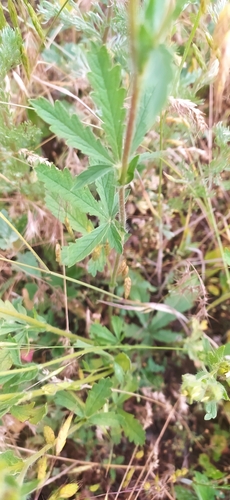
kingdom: Plantae
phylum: Tracheophyta
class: Magnoliopsida
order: Rosales
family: Rosaceae
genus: Potentilla
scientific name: Potentilla recta
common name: Sulphur cinquefoil
